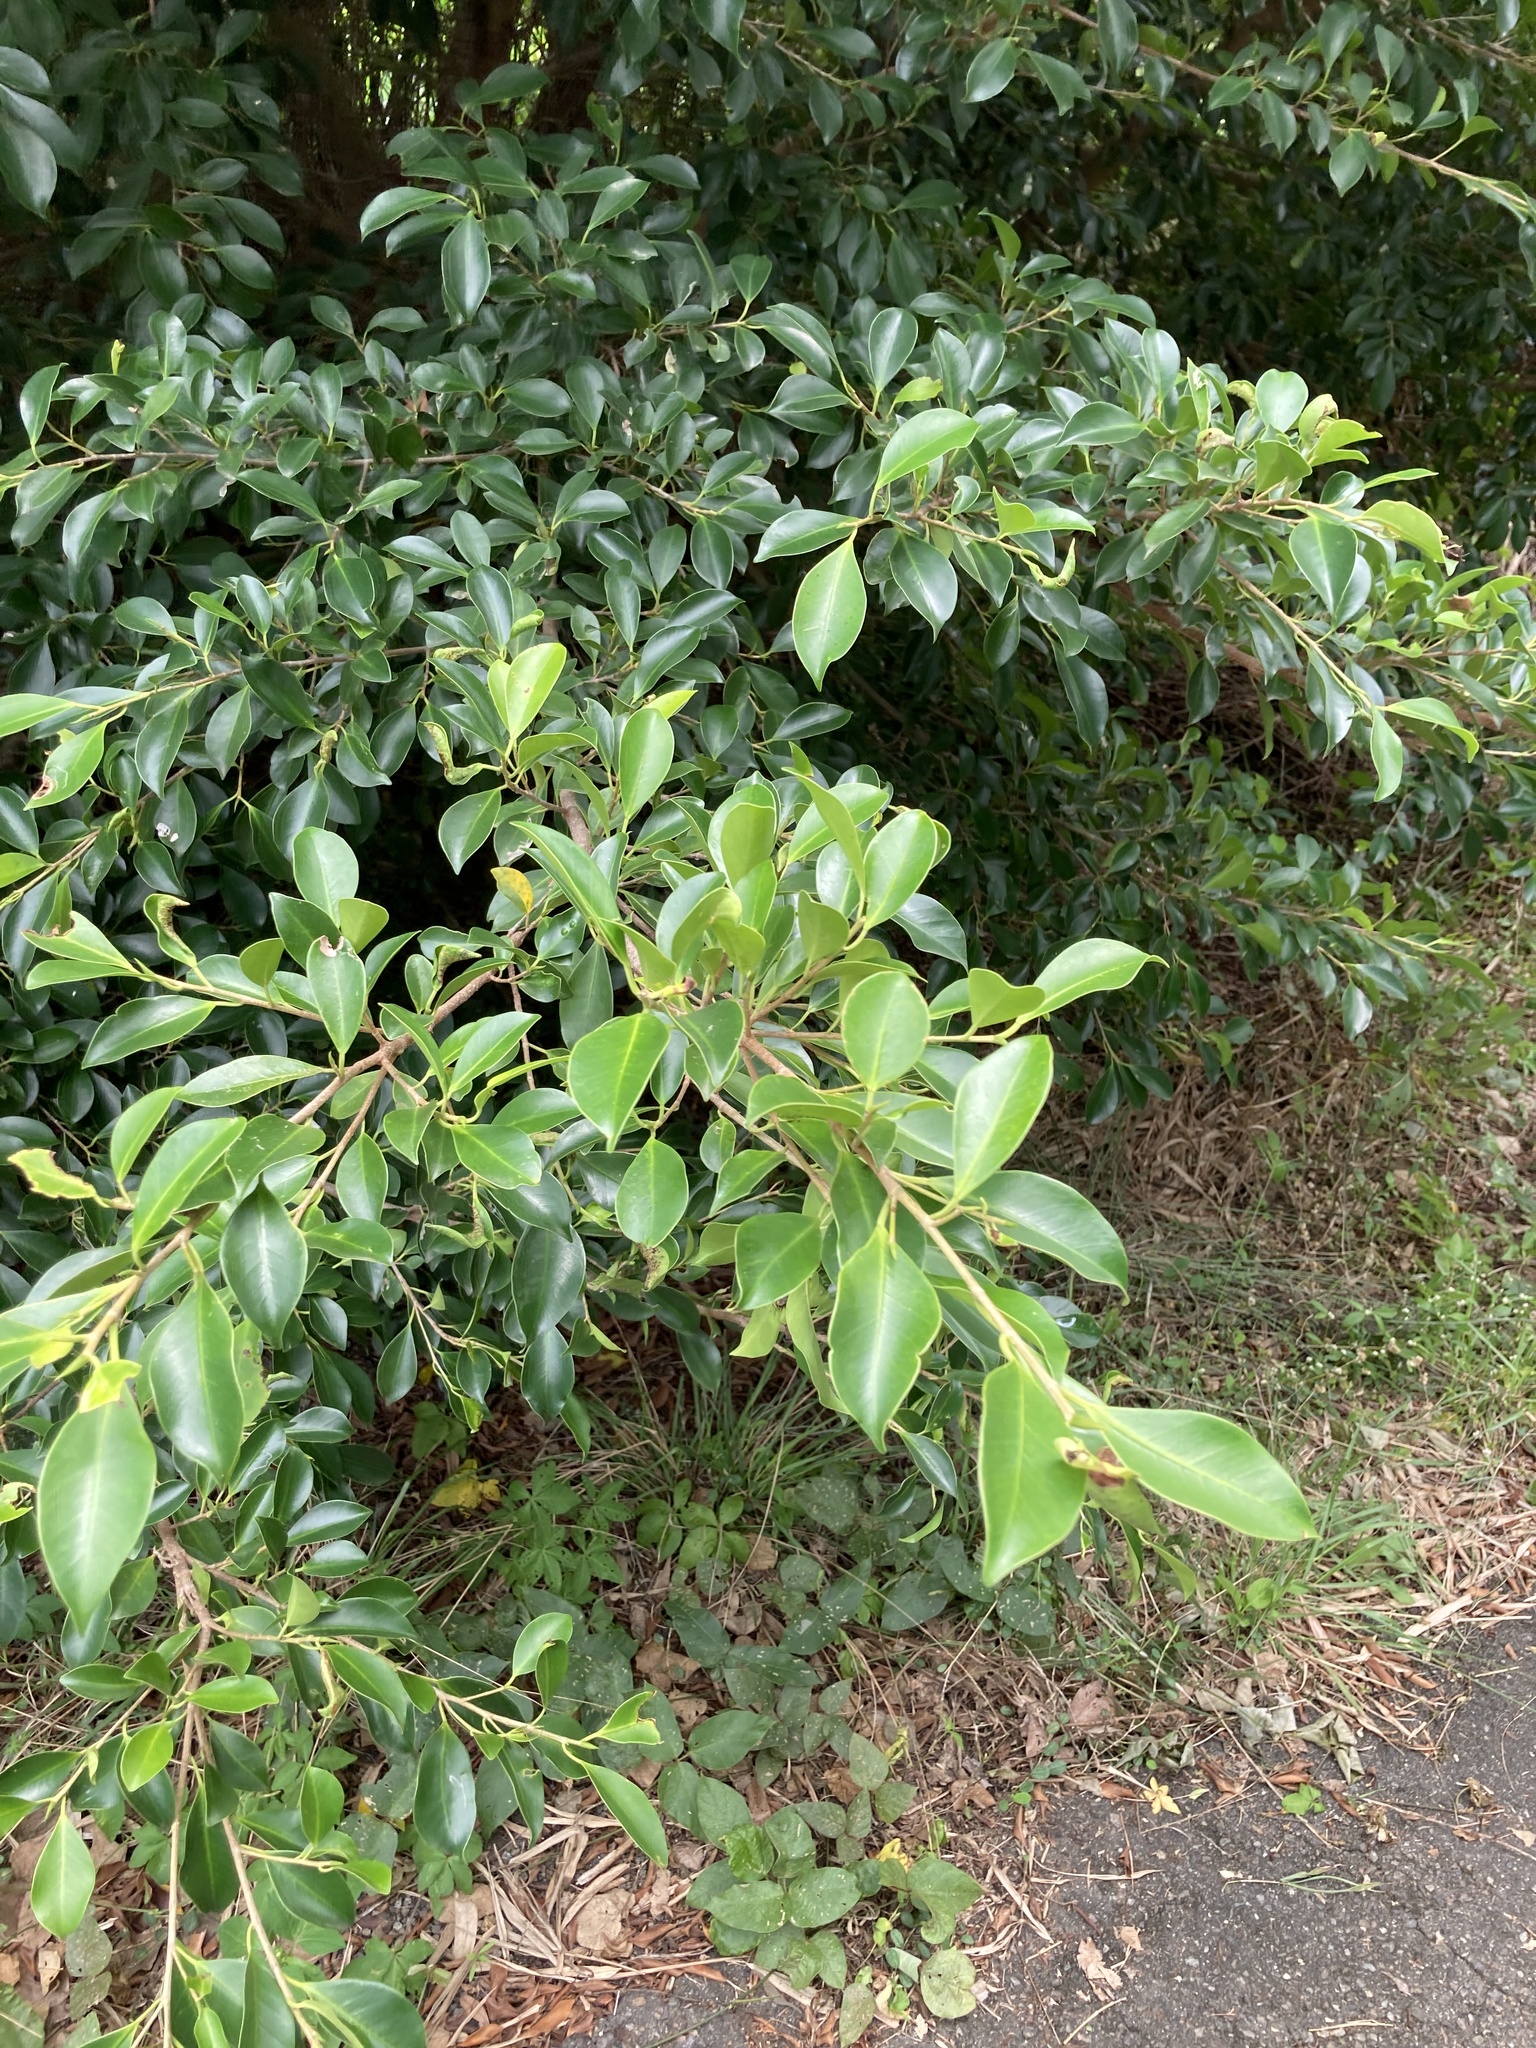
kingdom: Plantae
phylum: Tracheophyta
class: Magnoliopsida
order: Rosales
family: Moraceae
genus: Ficus
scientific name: Ficus microcarpa
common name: Chinese banyan
